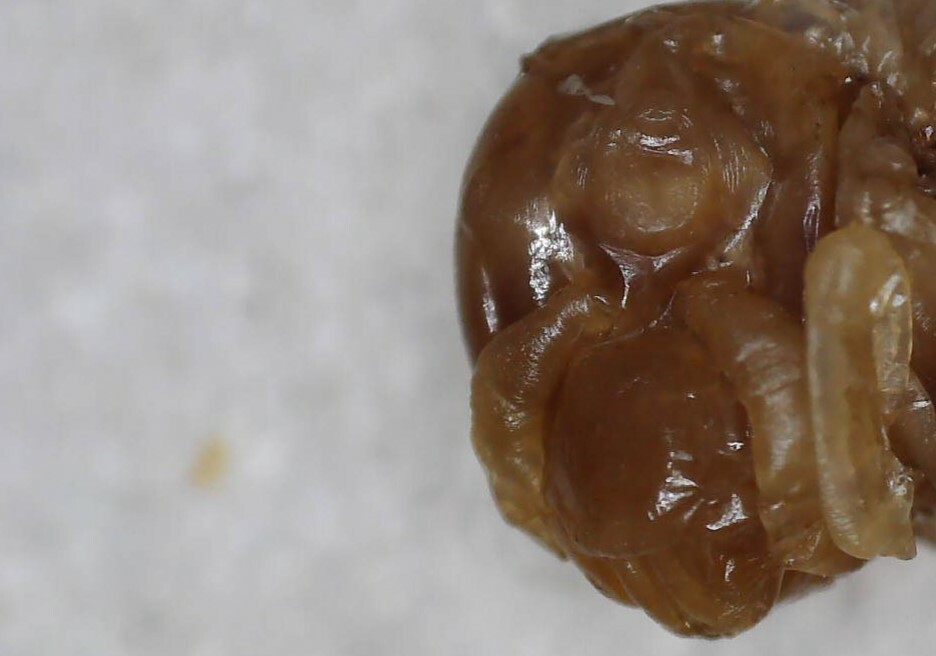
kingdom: Animalia
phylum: Arthropoda
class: Insecta
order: Hymenoptera
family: Vespidae
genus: Dolichovespula
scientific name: Dolichovespula maculata
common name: Bald-faced hornet
